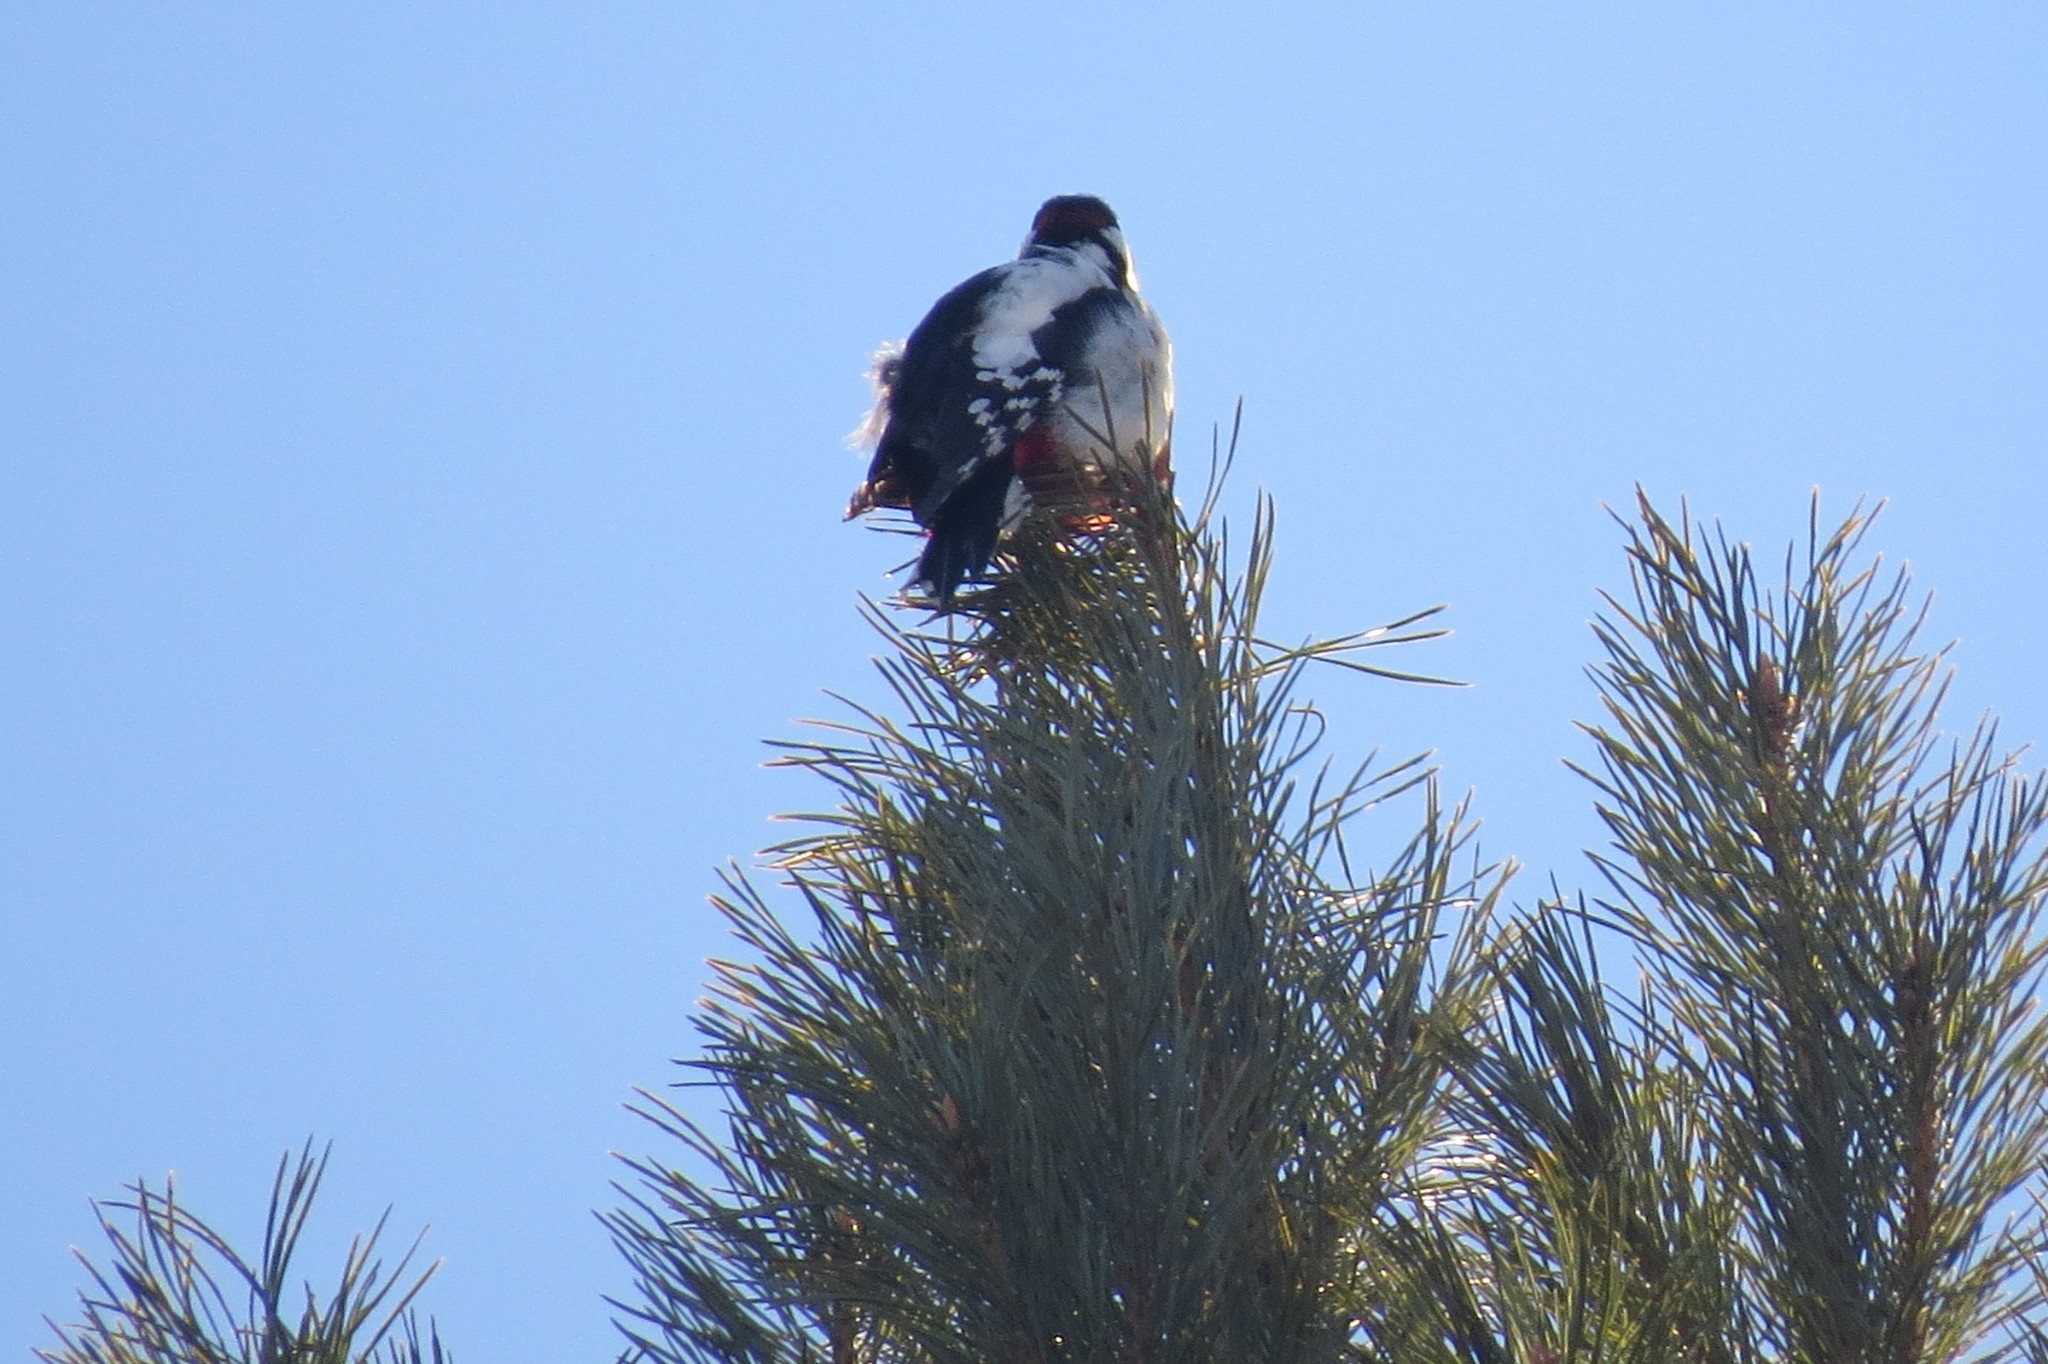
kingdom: Animalia
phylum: Chordata
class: Aves
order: Piciformes
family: Picidae
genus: Dendrocopos
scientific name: Dendrocopos major
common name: Great spotted woodpecker
